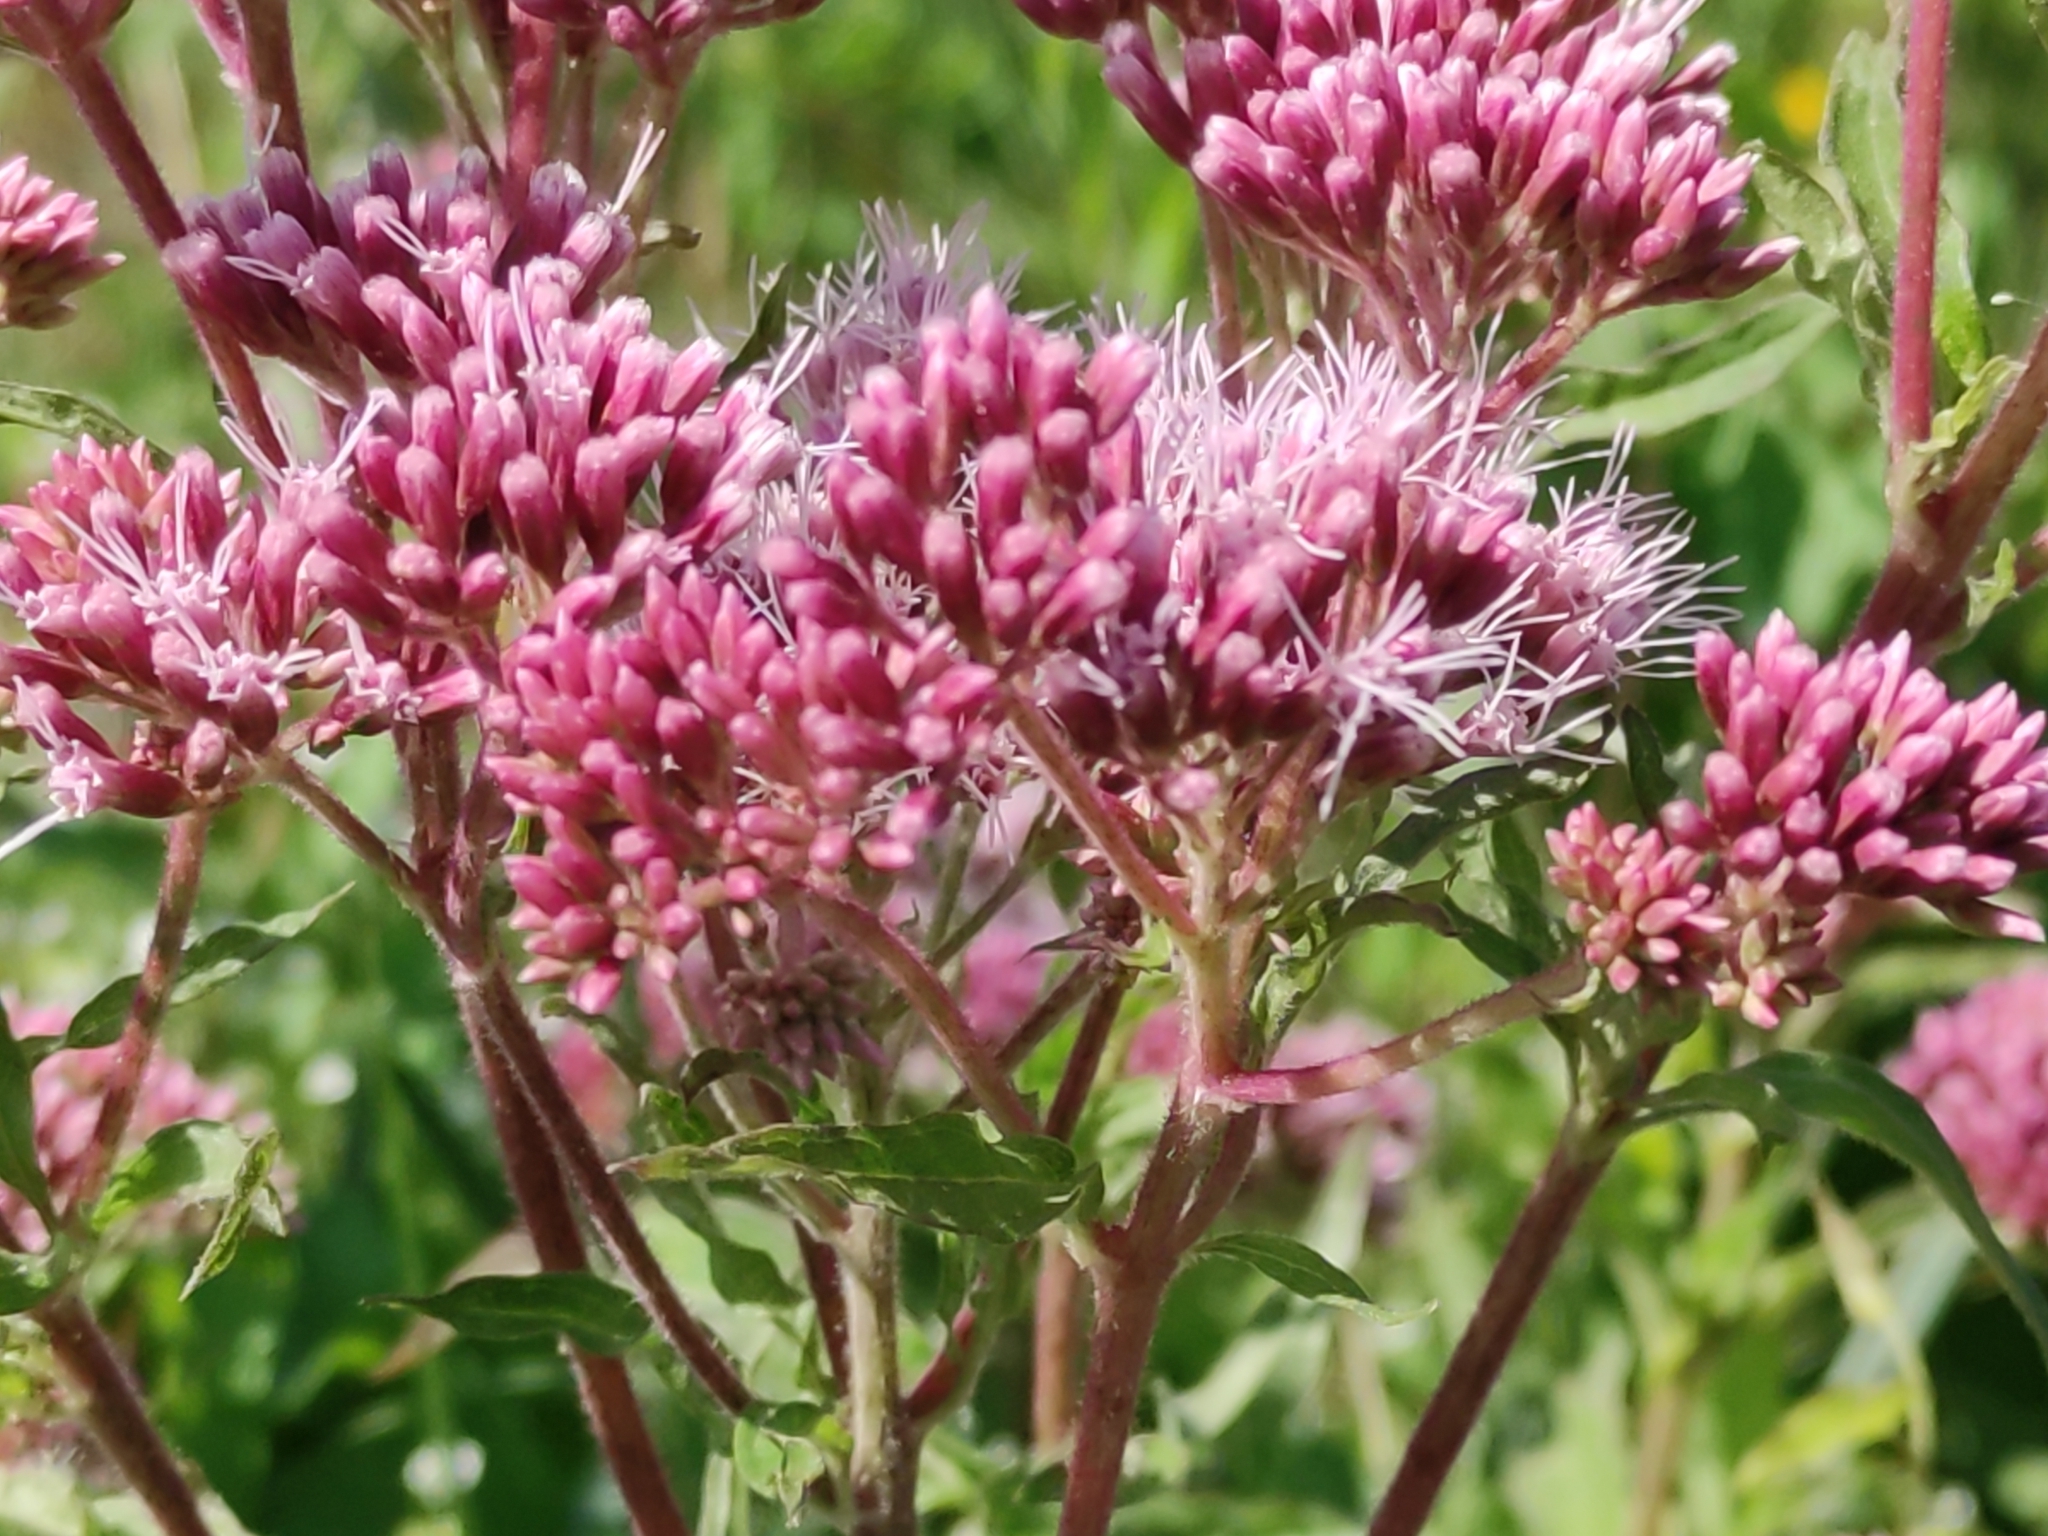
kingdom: Plantae
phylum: Tracheophyta
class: Magnoliopsida
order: Asterales
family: Asteraceae
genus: Eupatorium
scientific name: Eupatorium cannabinum
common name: Hemp-agrimony
